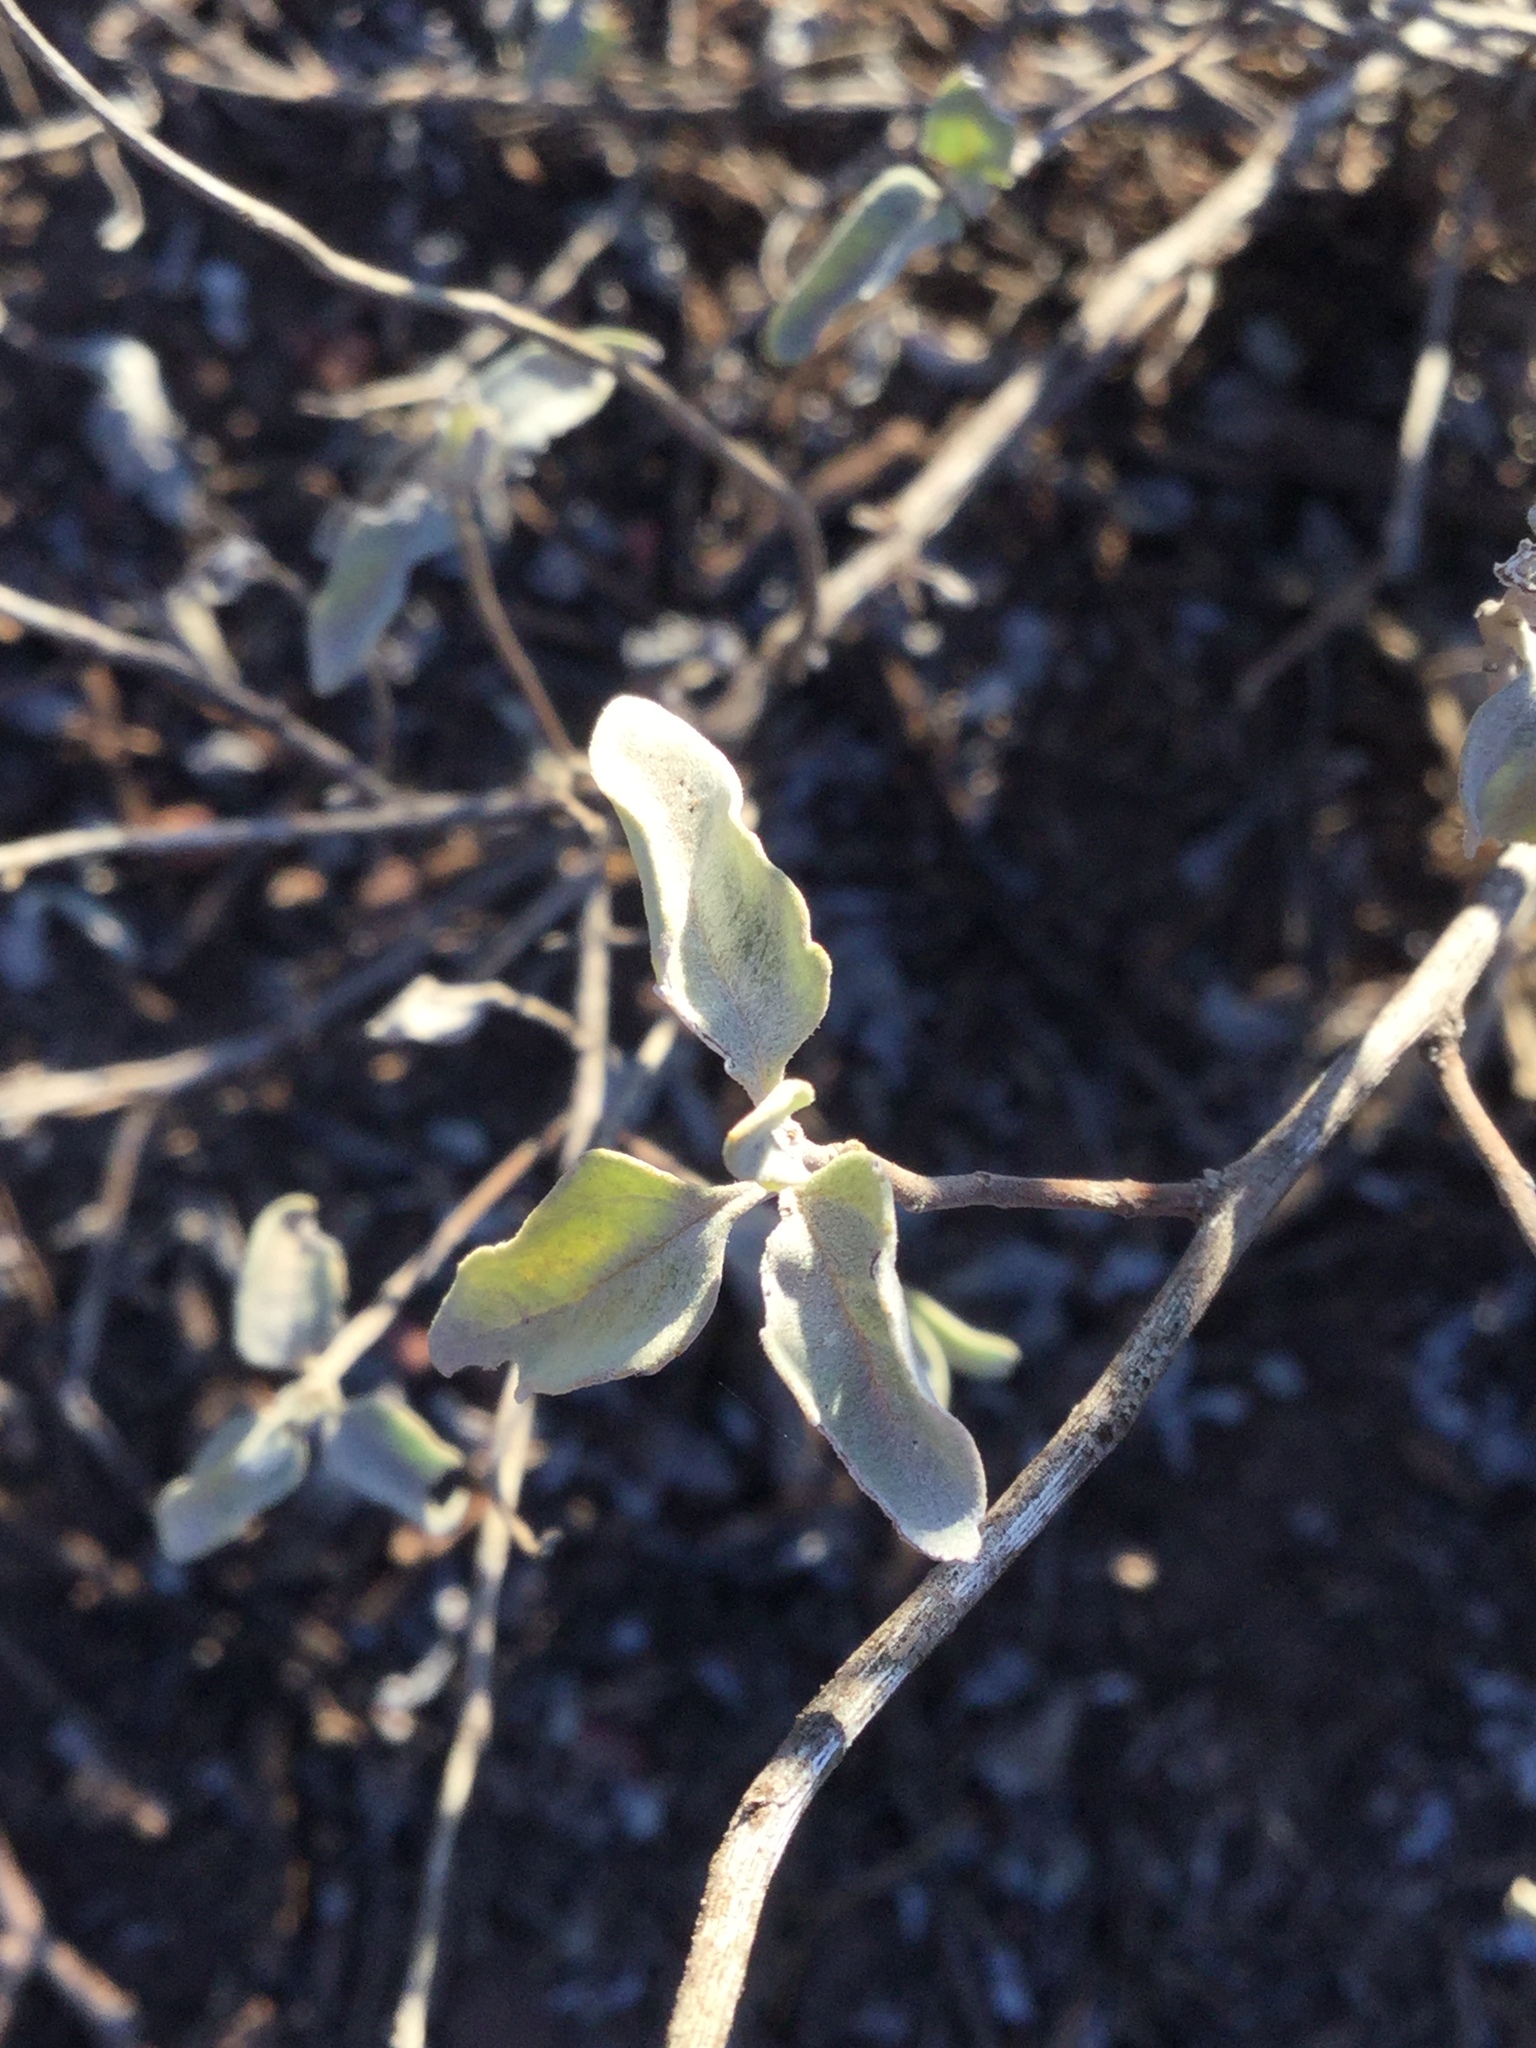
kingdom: Plantae
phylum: Tracheophyta
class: Magnoliopsida
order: Asterales
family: Asteraceae
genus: Zaluzania
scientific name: Zaluzania augusta
